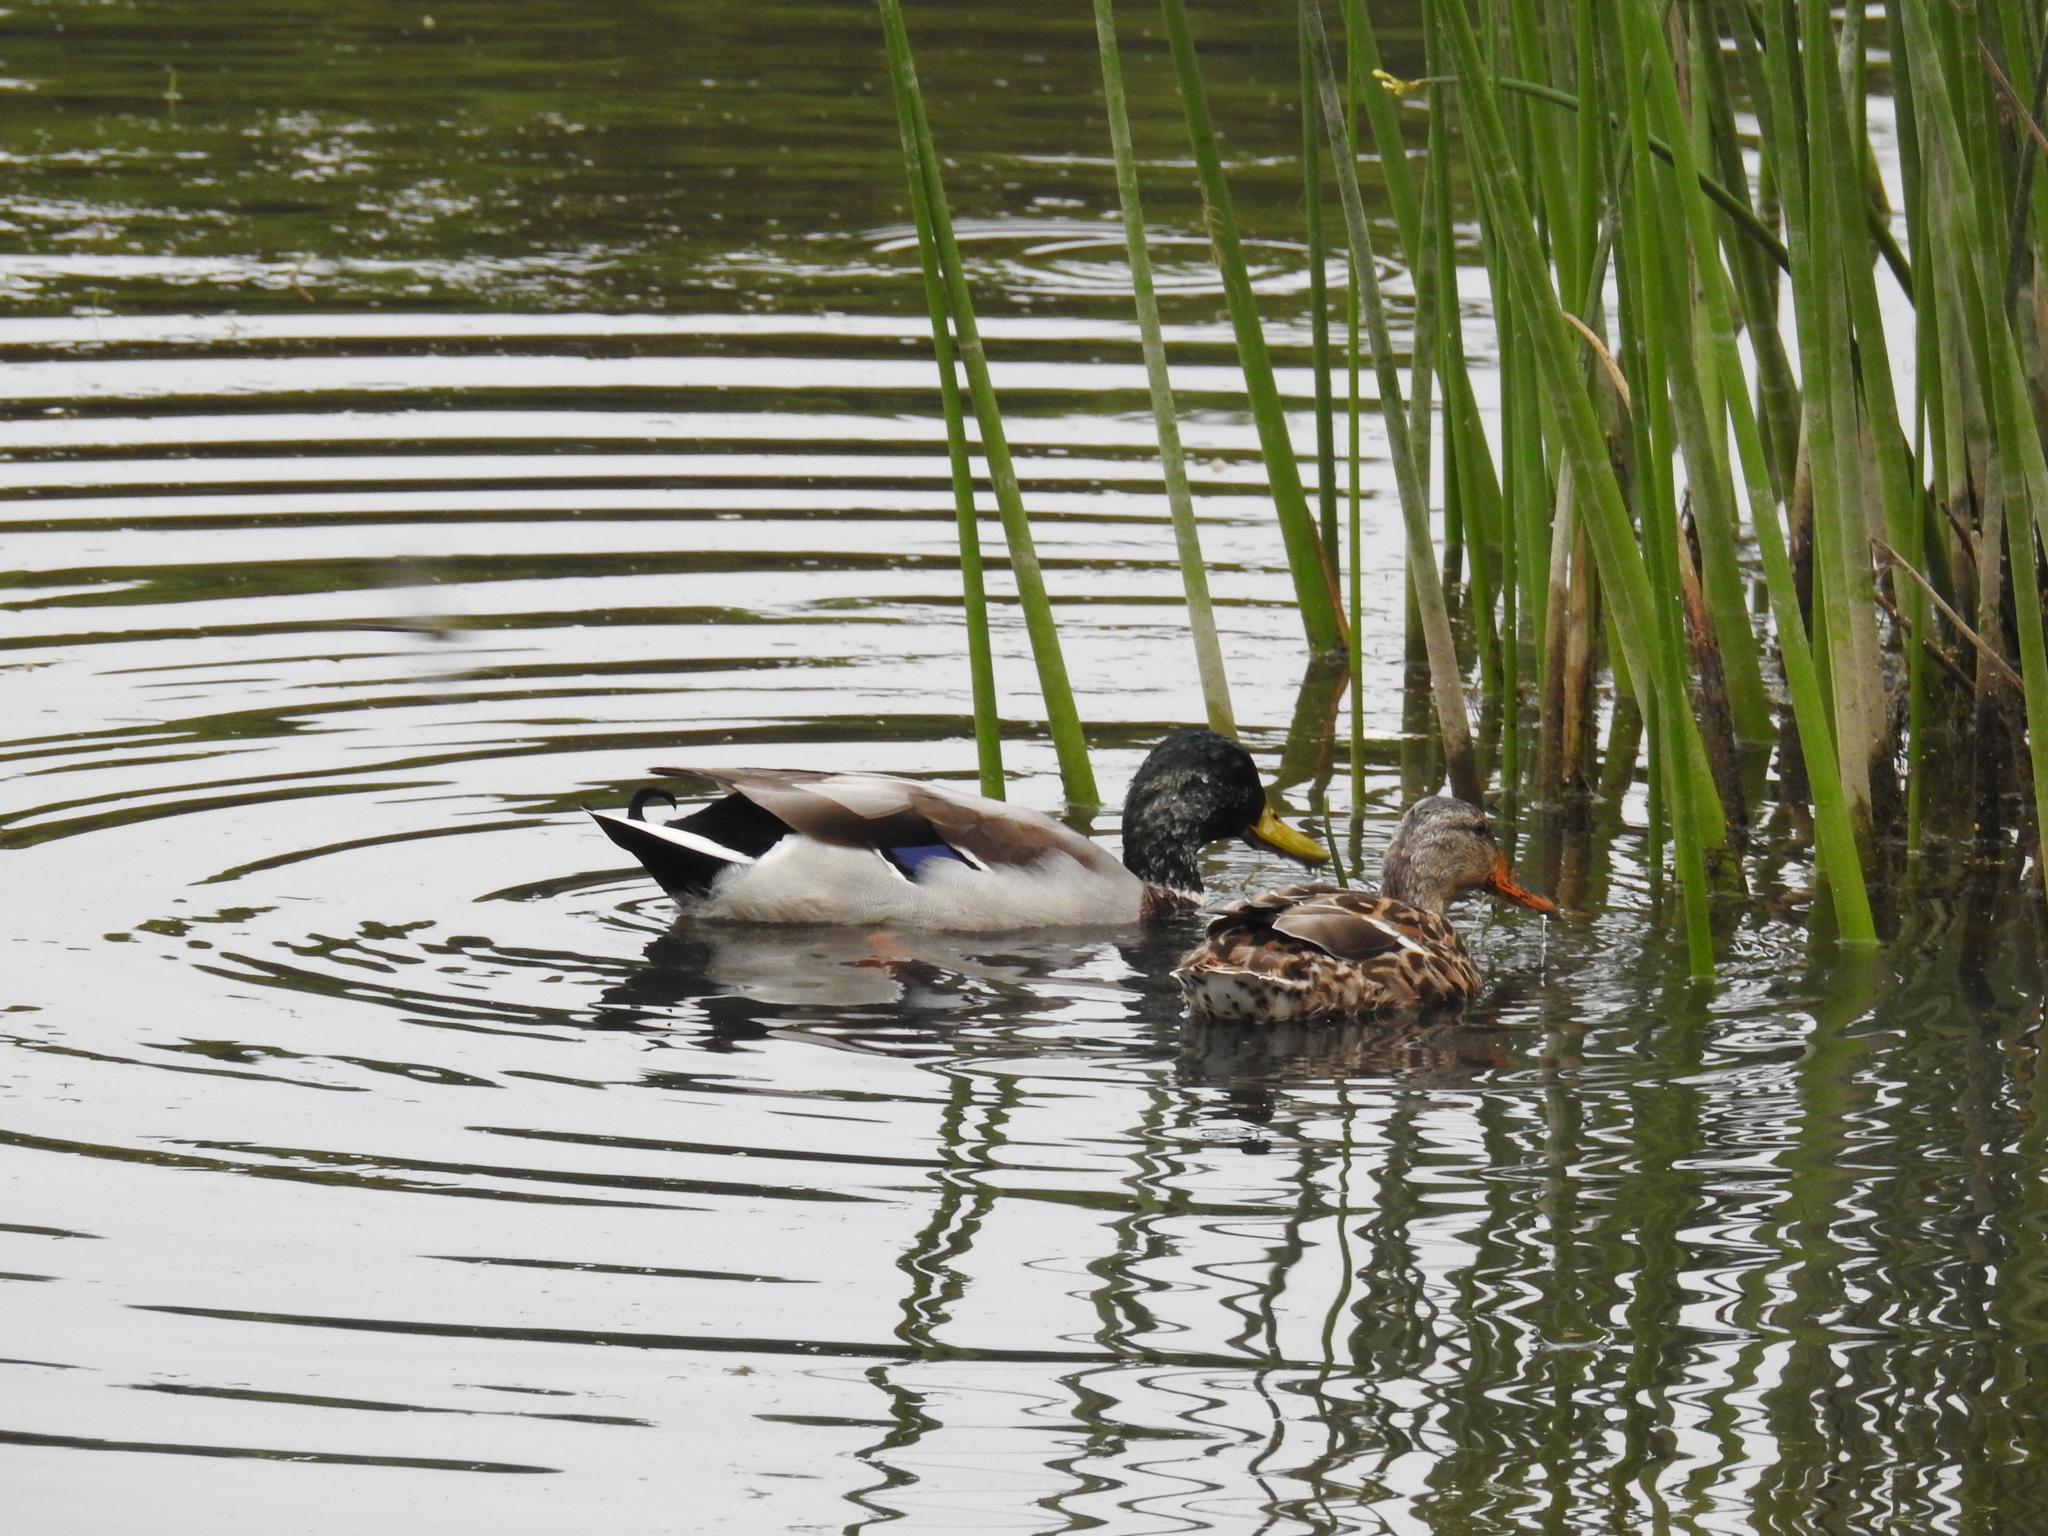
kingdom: Animalia
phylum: Chordata
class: Aves
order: Anseriformes
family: Anatidae
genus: Anas
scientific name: Anas platyrhynchos
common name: Mallard
